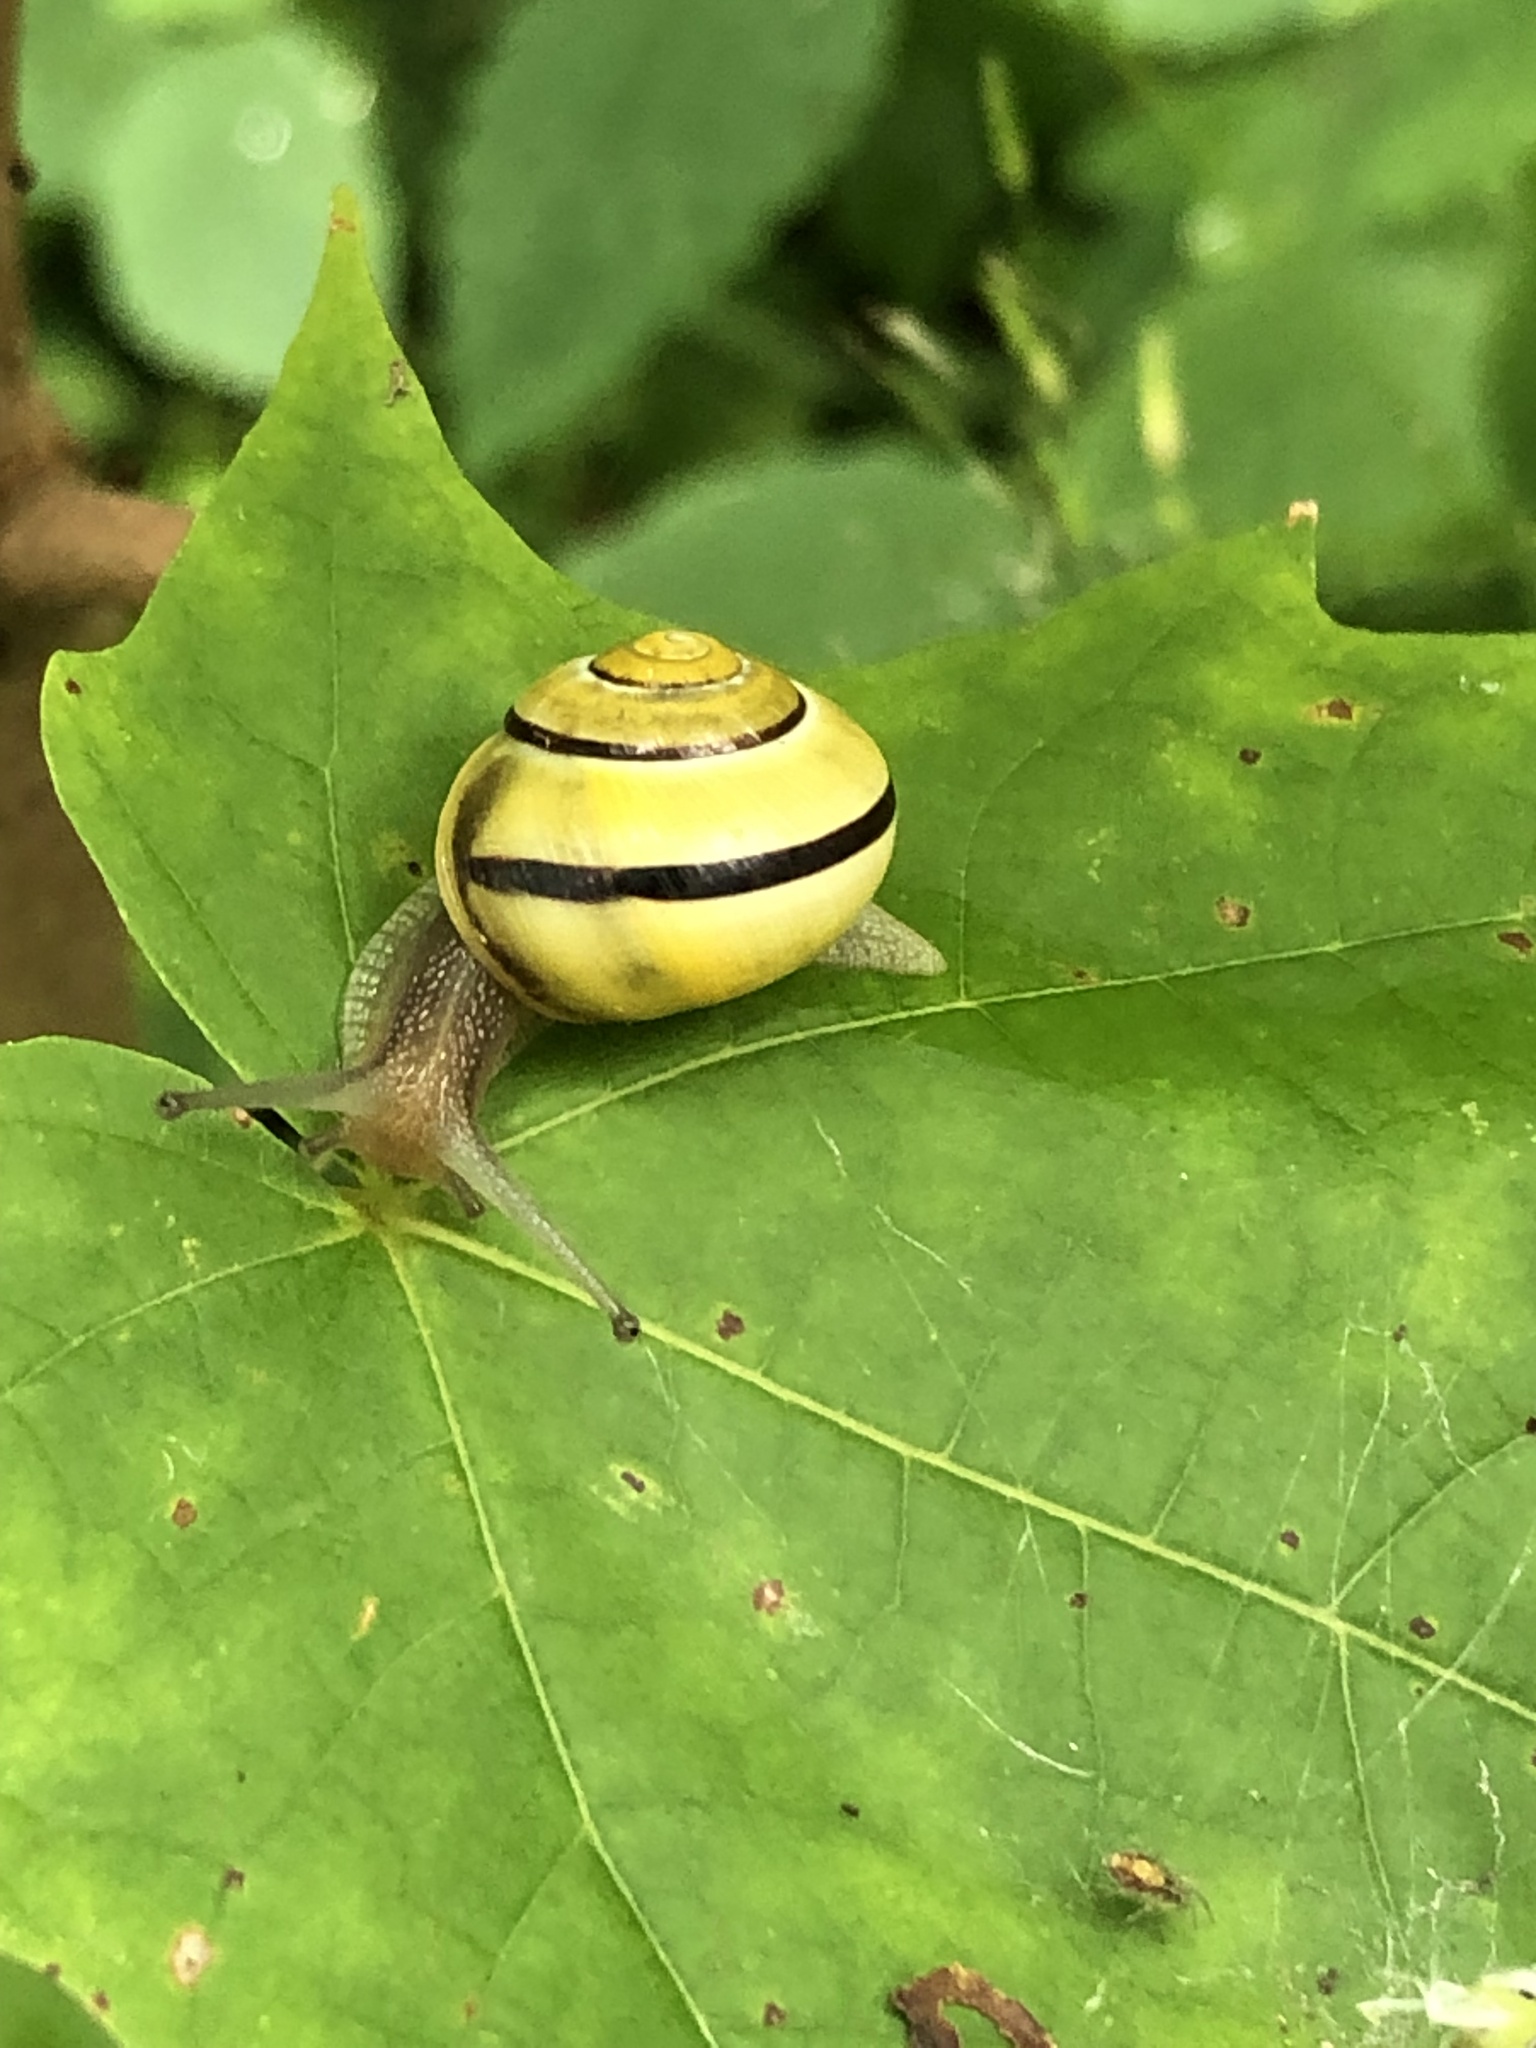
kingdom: Animalia
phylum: Mollusca
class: Gastropoda
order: Stylommatophora
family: Helicidae
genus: Cepaea
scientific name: Cepaea nemoralis
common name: Grovesnail
